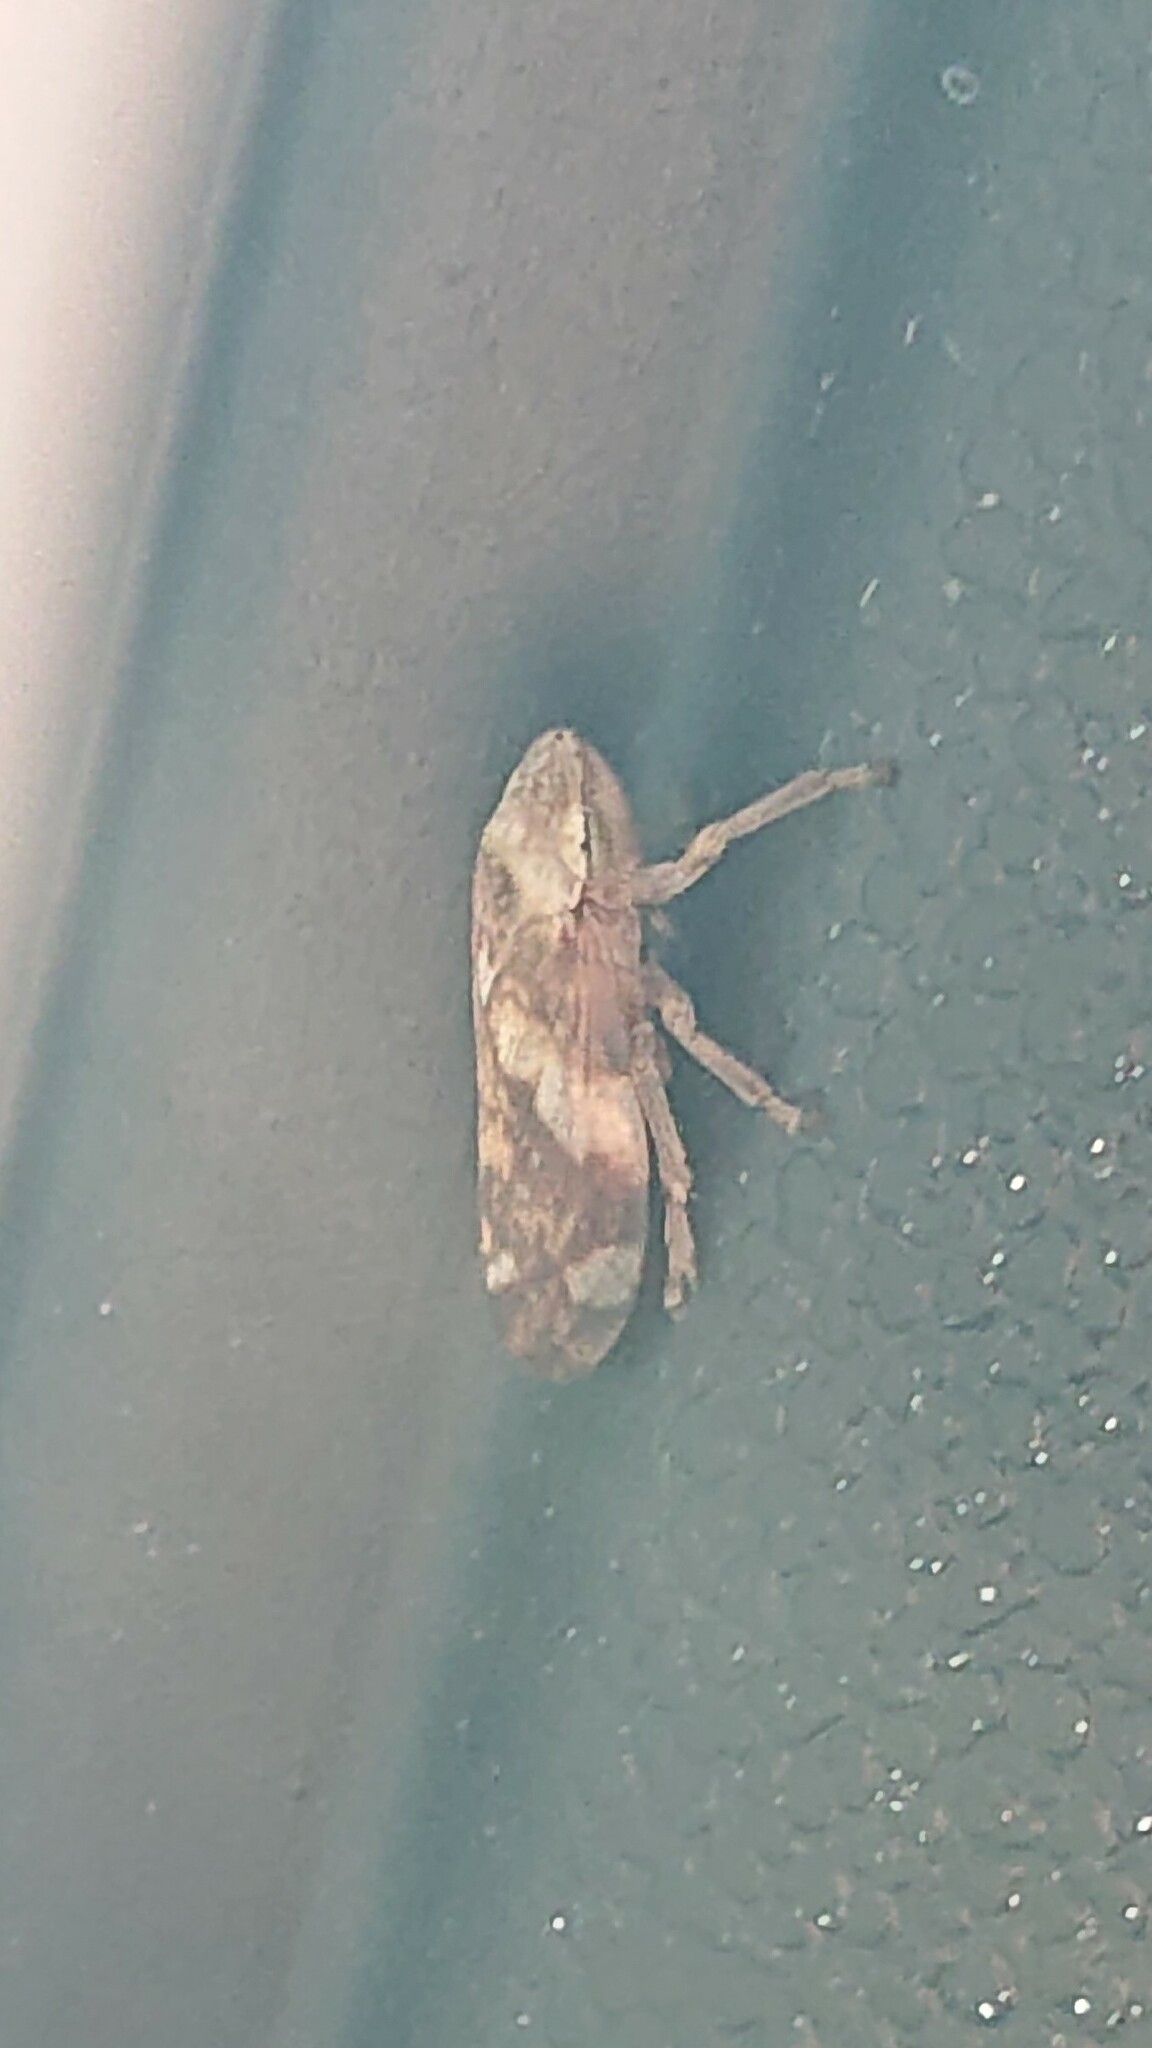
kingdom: Animalia
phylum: Arthropoda
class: Insecta
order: Hemiptera
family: Aphrophoridae
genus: Philaenus
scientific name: Philaenus spumarius
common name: Meadow spittlebug
